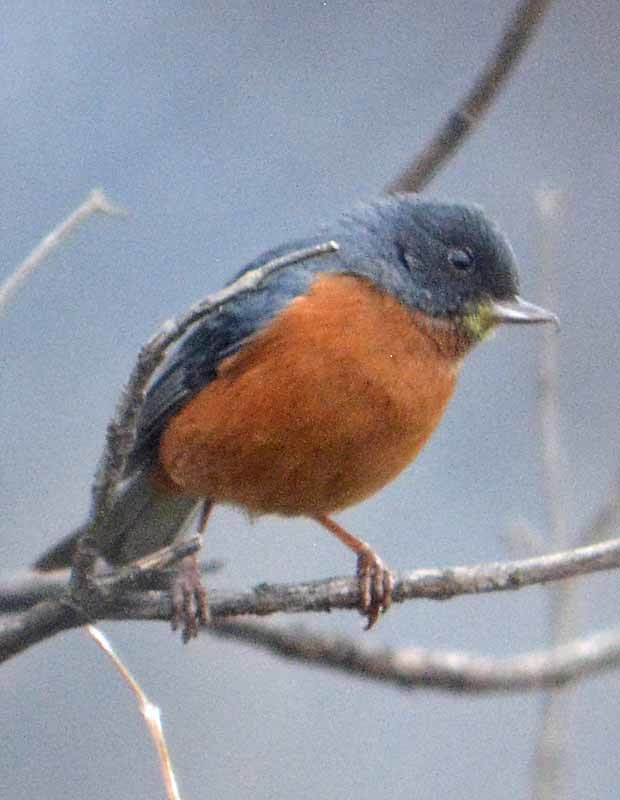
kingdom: Animalia
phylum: Chordata
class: Aves
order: Passeriformes
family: Thraupidae
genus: Diglossa
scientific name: Diglossa baritula
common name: Cinnamon-bellied flowerpiercer
